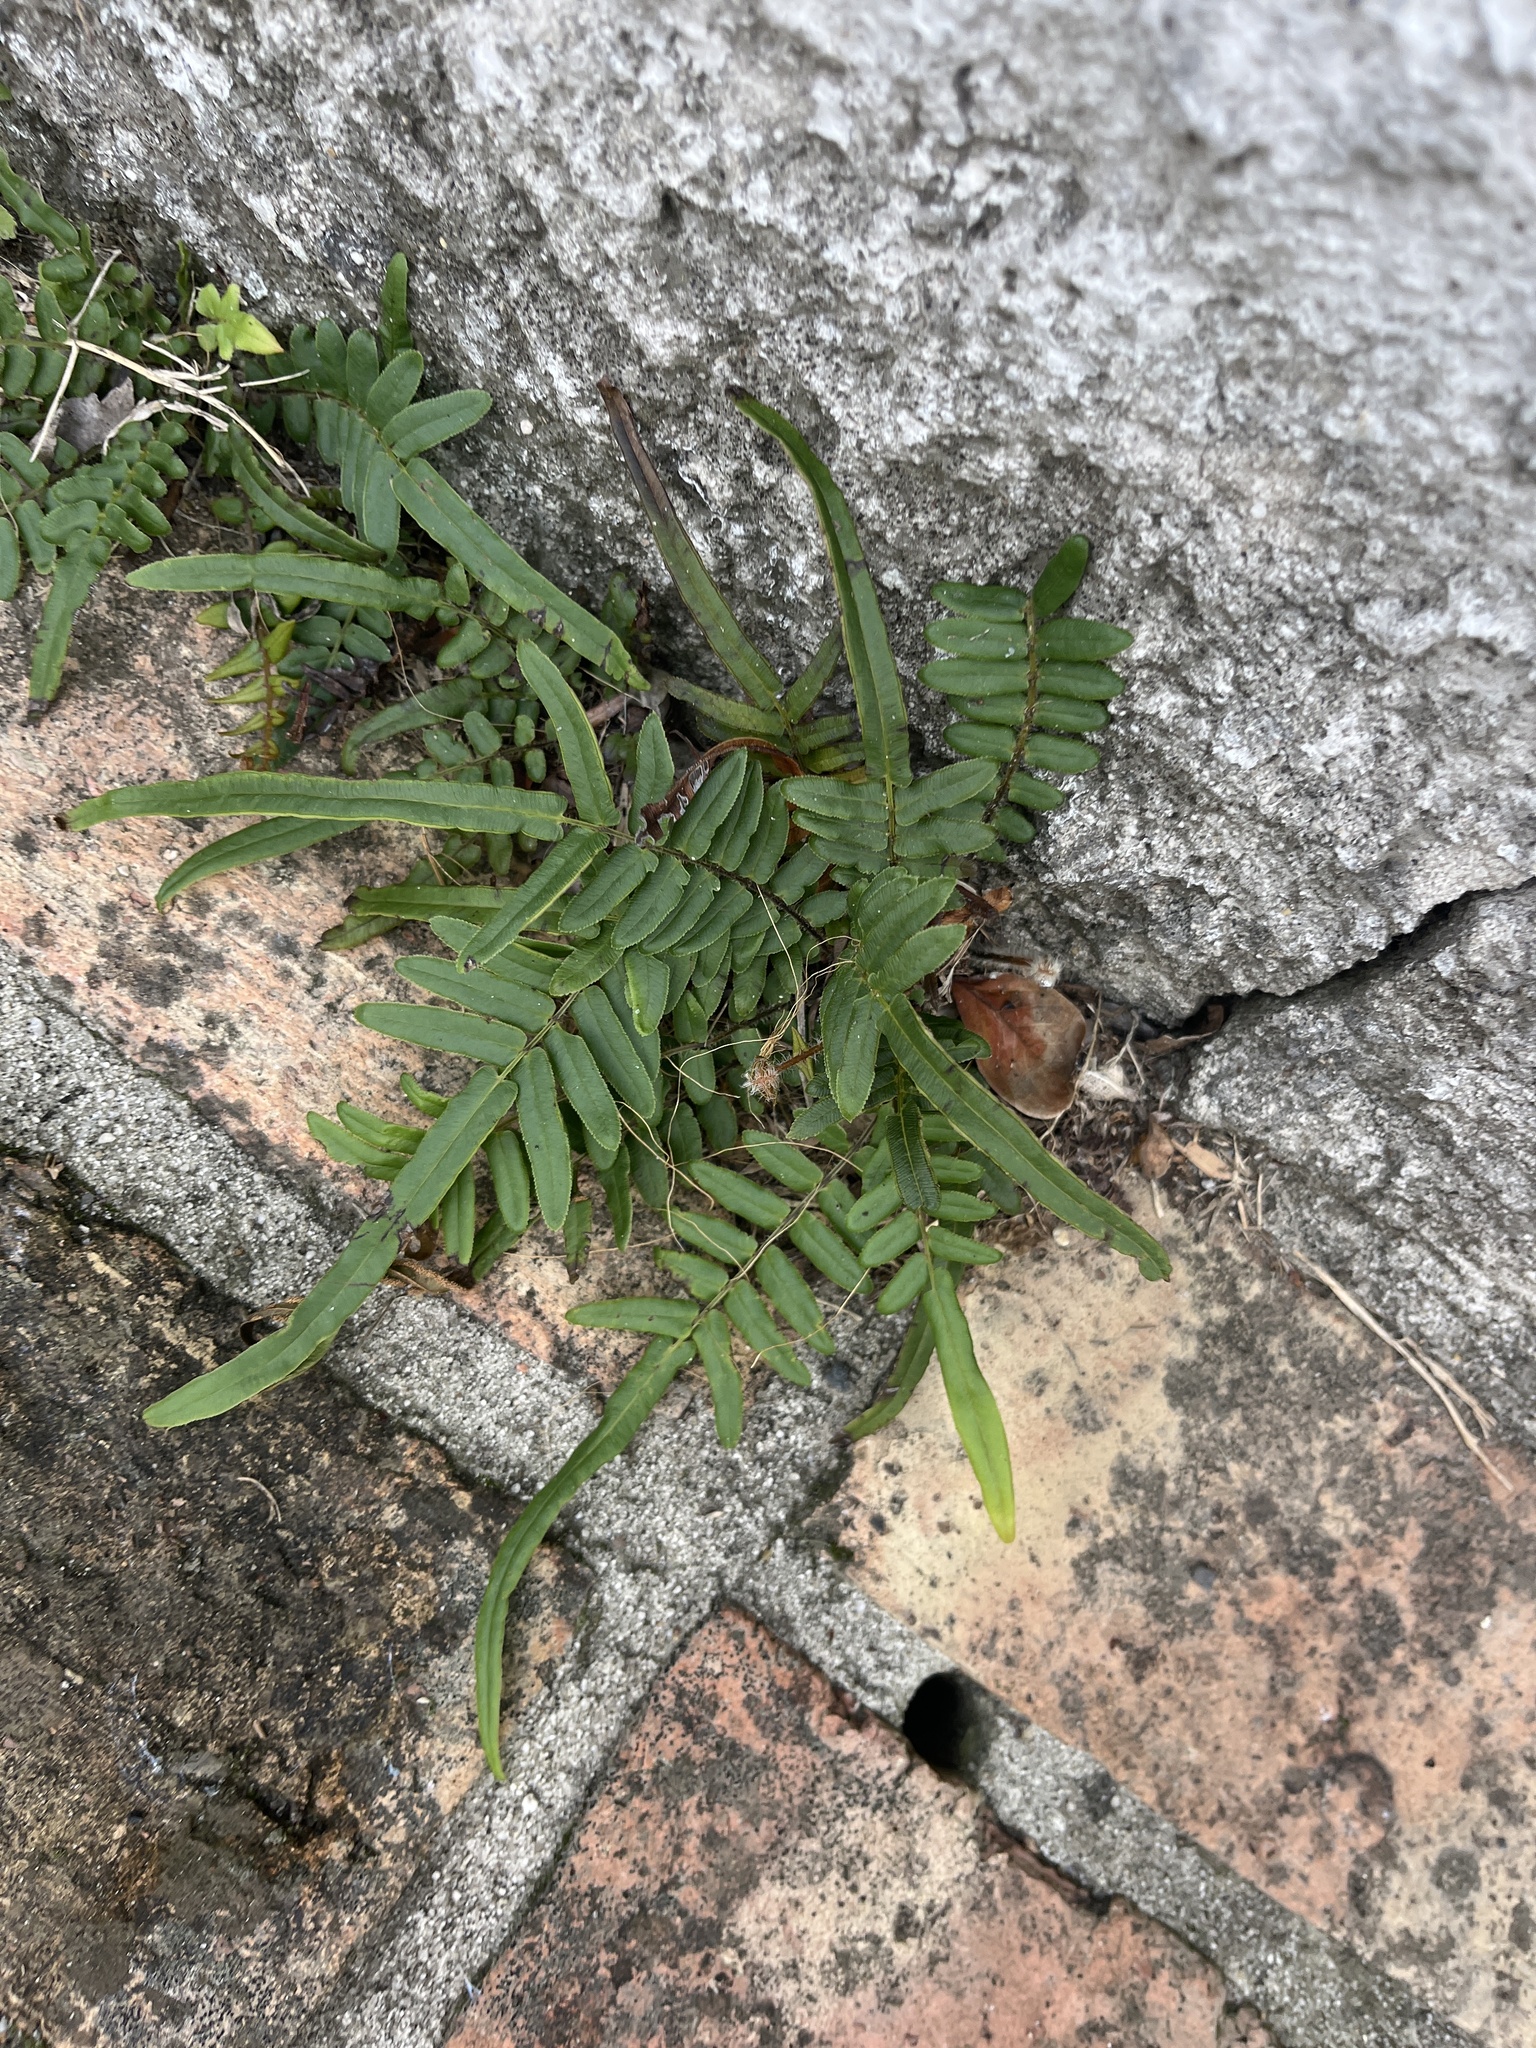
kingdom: Plantae
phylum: Tracheophyta
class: Polypodiopsida
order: Polypodiales
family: Pteridaceae
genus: Pteris
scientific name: Pteris vittata
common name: Ladder brake
